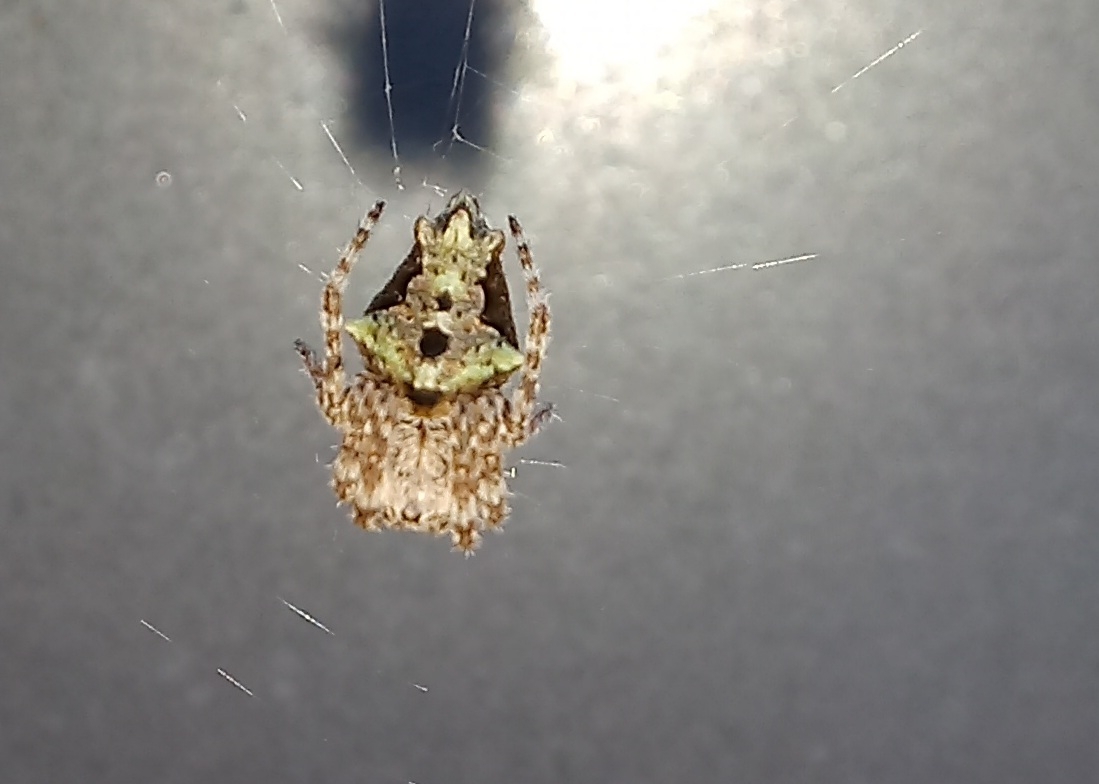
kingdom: Animalia
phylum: Arthropoda
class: Arachnida
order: Araneae
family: Araneidae
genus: Eriophora
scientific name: Eriophora pustulosa
